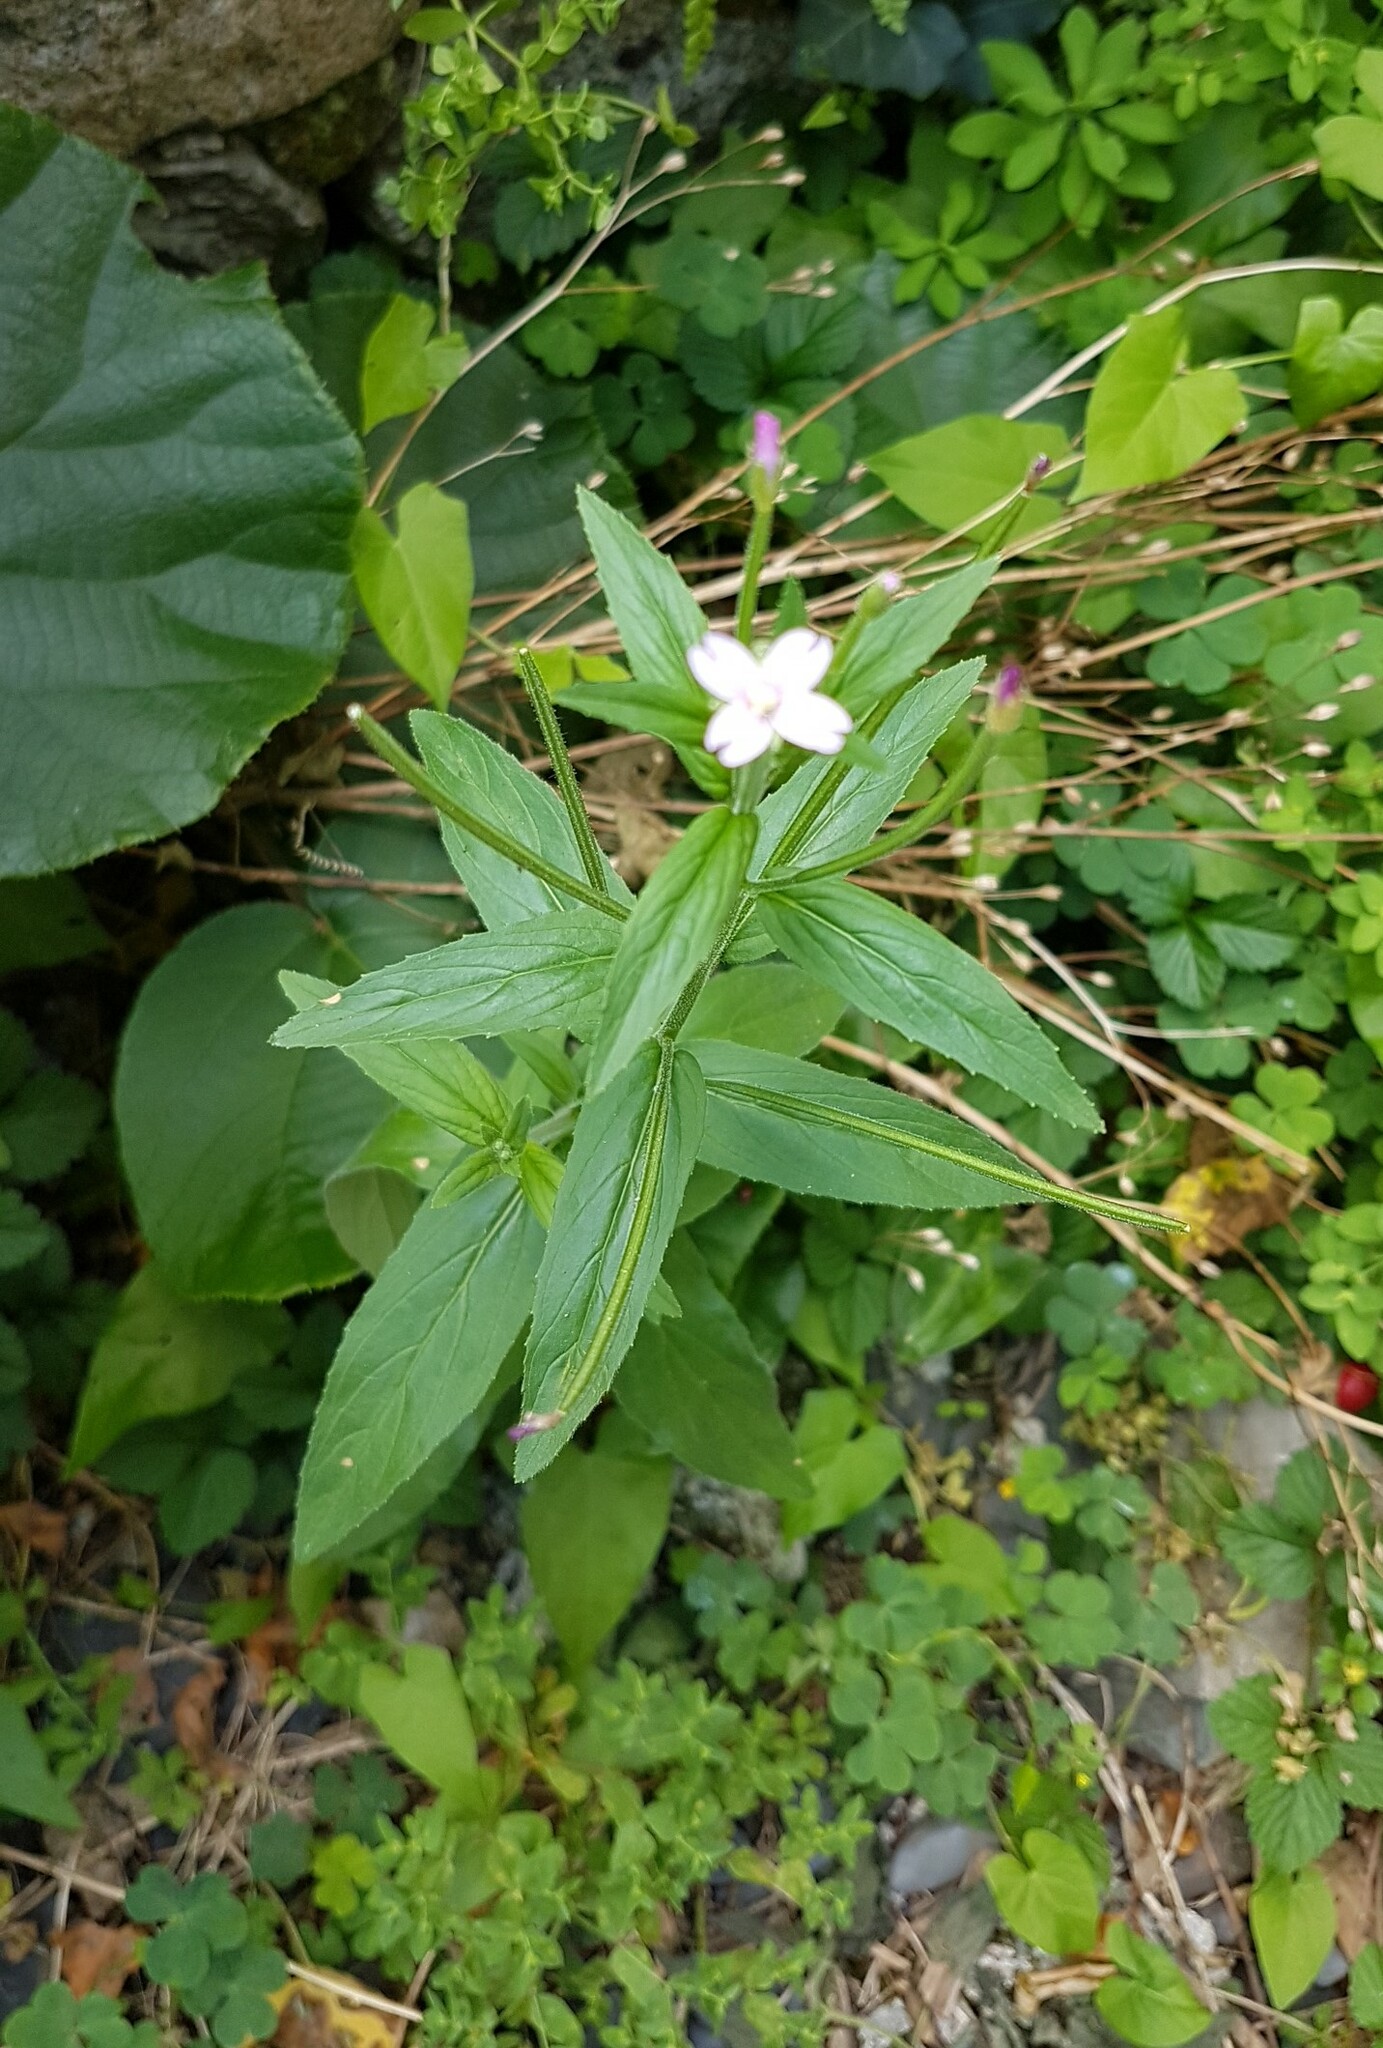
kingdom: Plantae
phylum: Tracheophyta
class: Magnoliopsida
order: Myrtales
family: Onagraceae
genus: Epilobium
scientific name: Epilobium parviflorum
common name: Hoary willowherb
